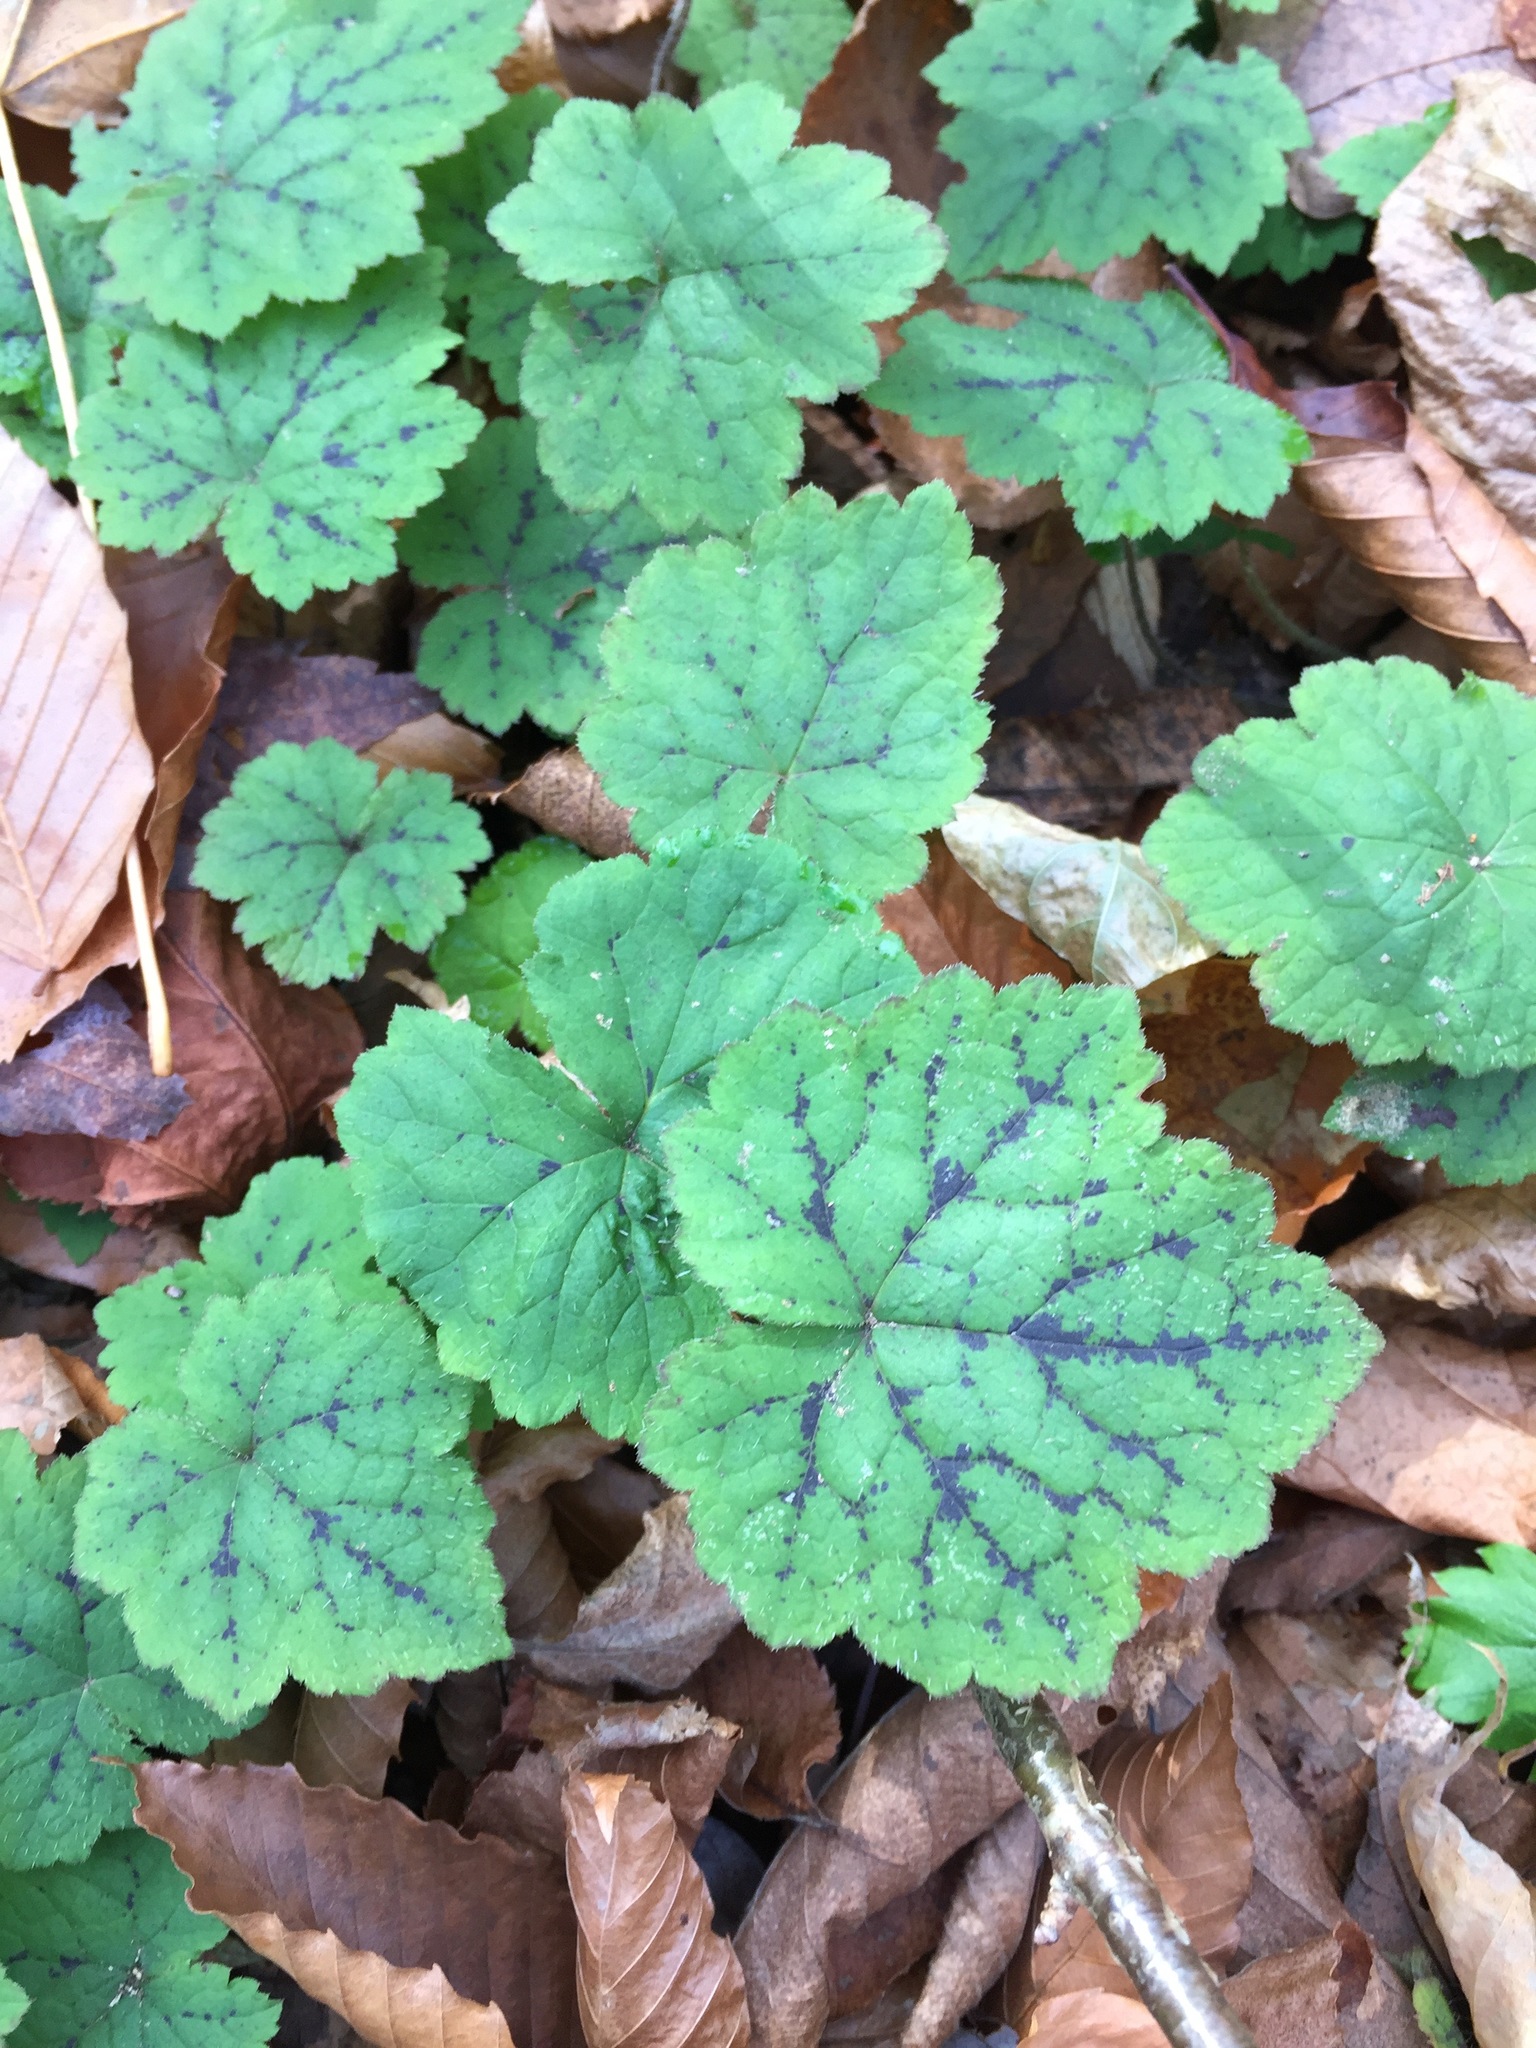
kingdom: Plantae
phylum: Tracheophyta
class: Magnoliopsida
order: Saxifragales
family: Saxifragaceae
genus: Tiarella
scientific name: Tiarella stolonifera
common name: Stoloniferous foamflower
